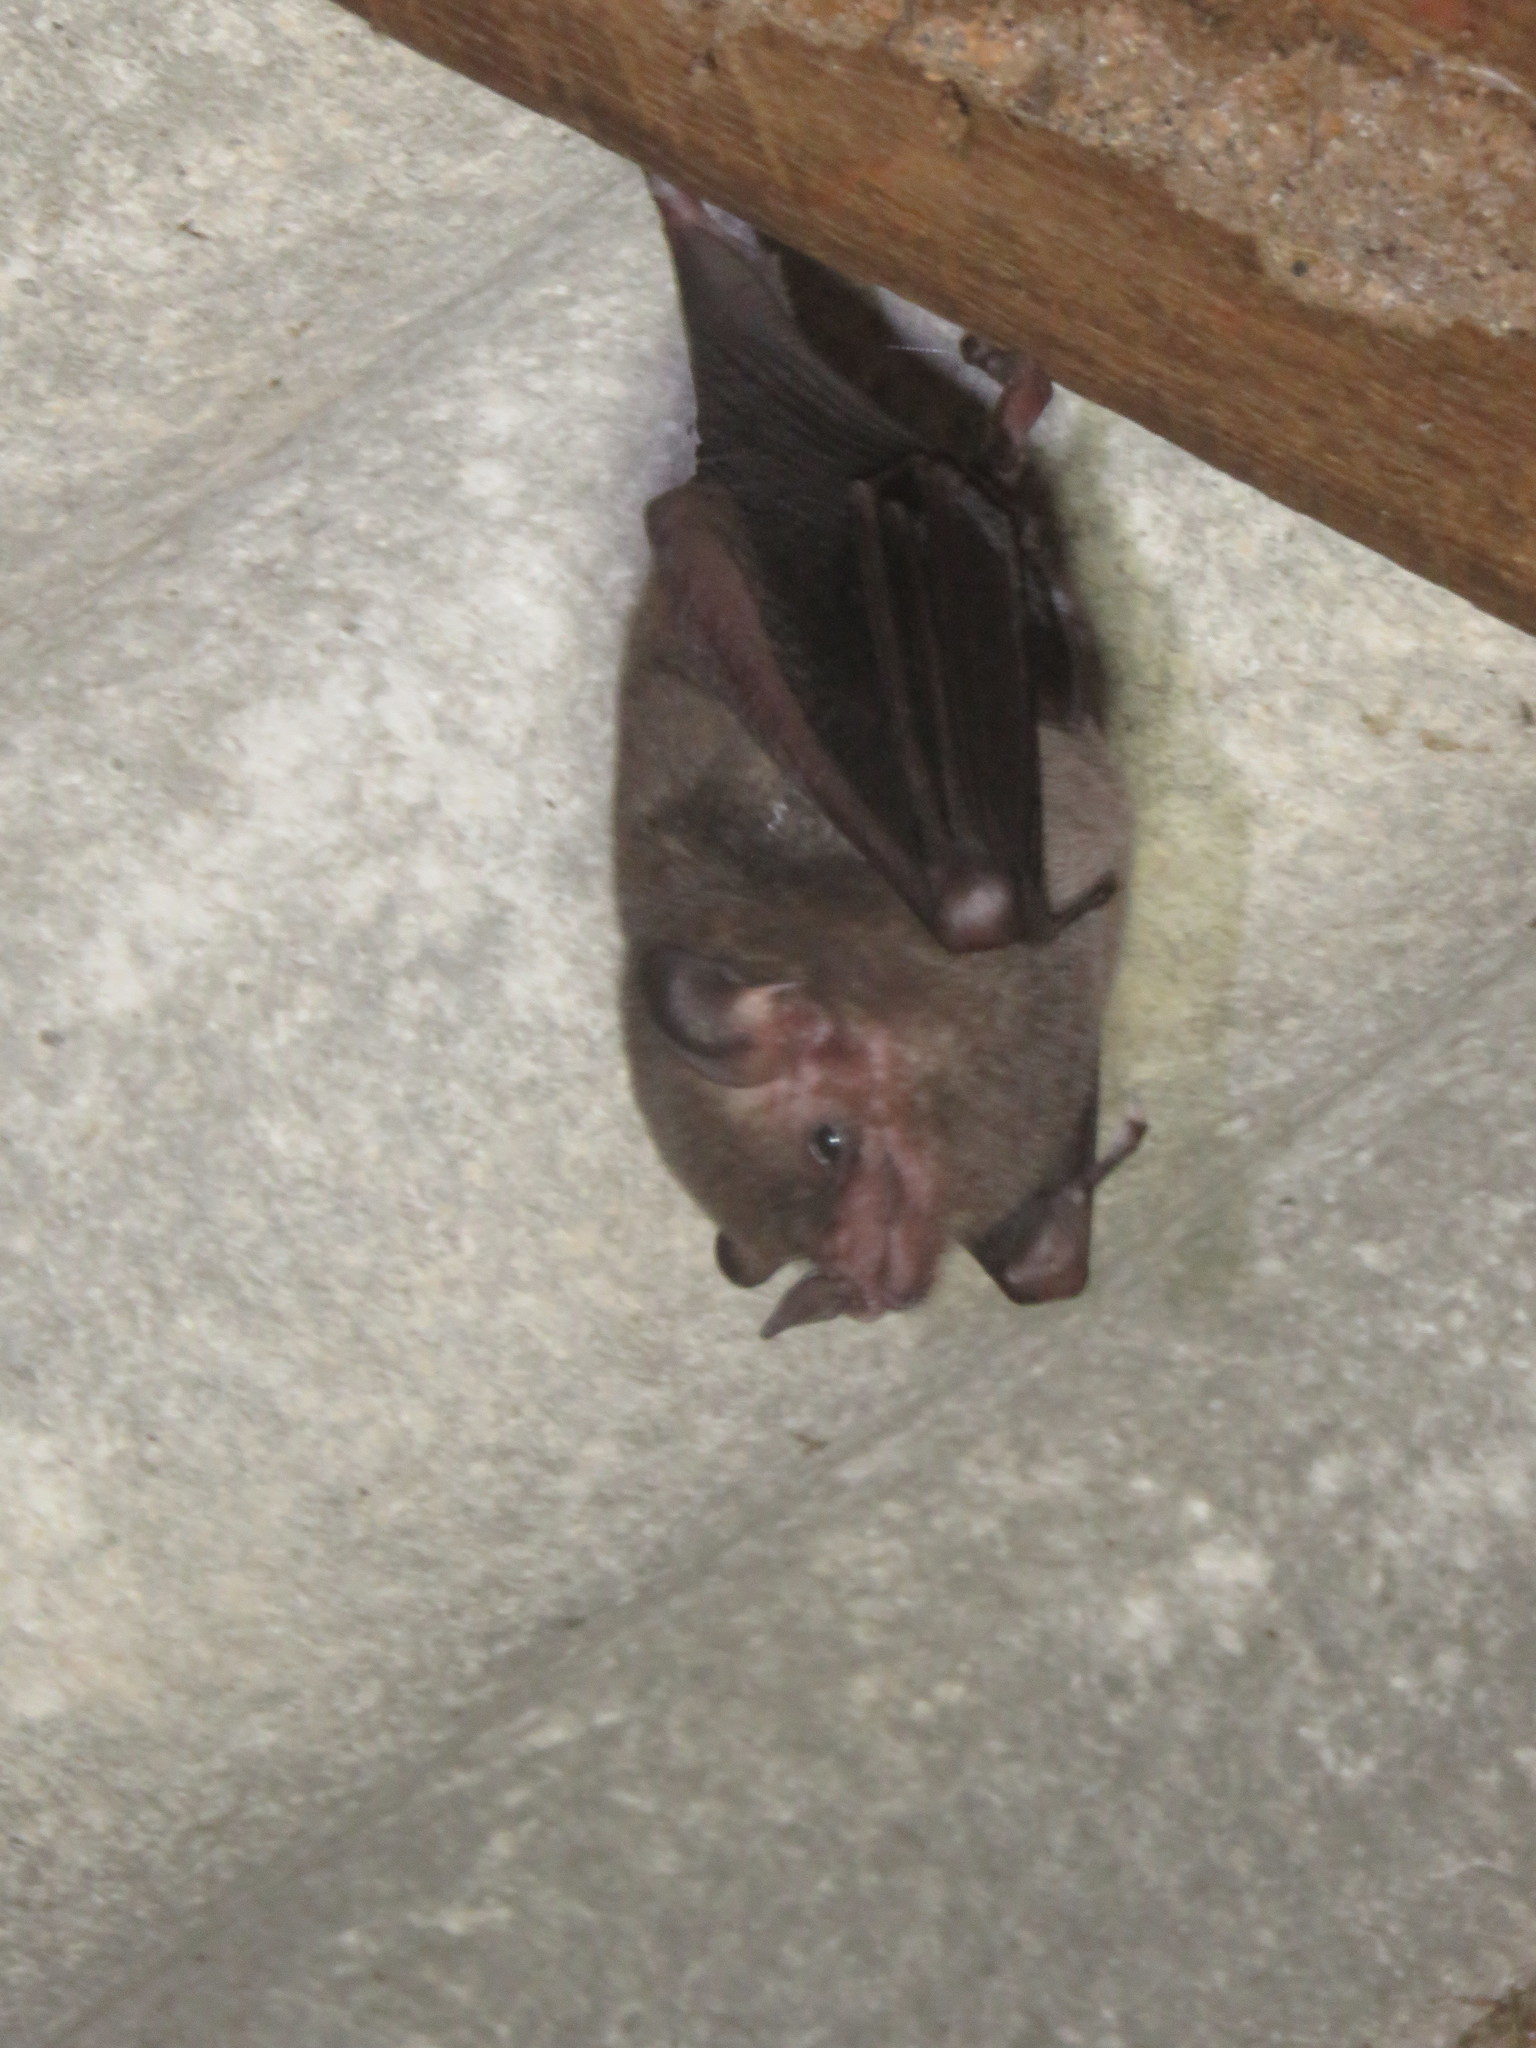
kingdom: Animalia
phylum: Chordata
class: Mammalia
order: Chiroptera
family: Phyllostomidae
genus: Glossophaga
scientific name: Glossophaga soricina
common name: Pallas's long-tongued bat
